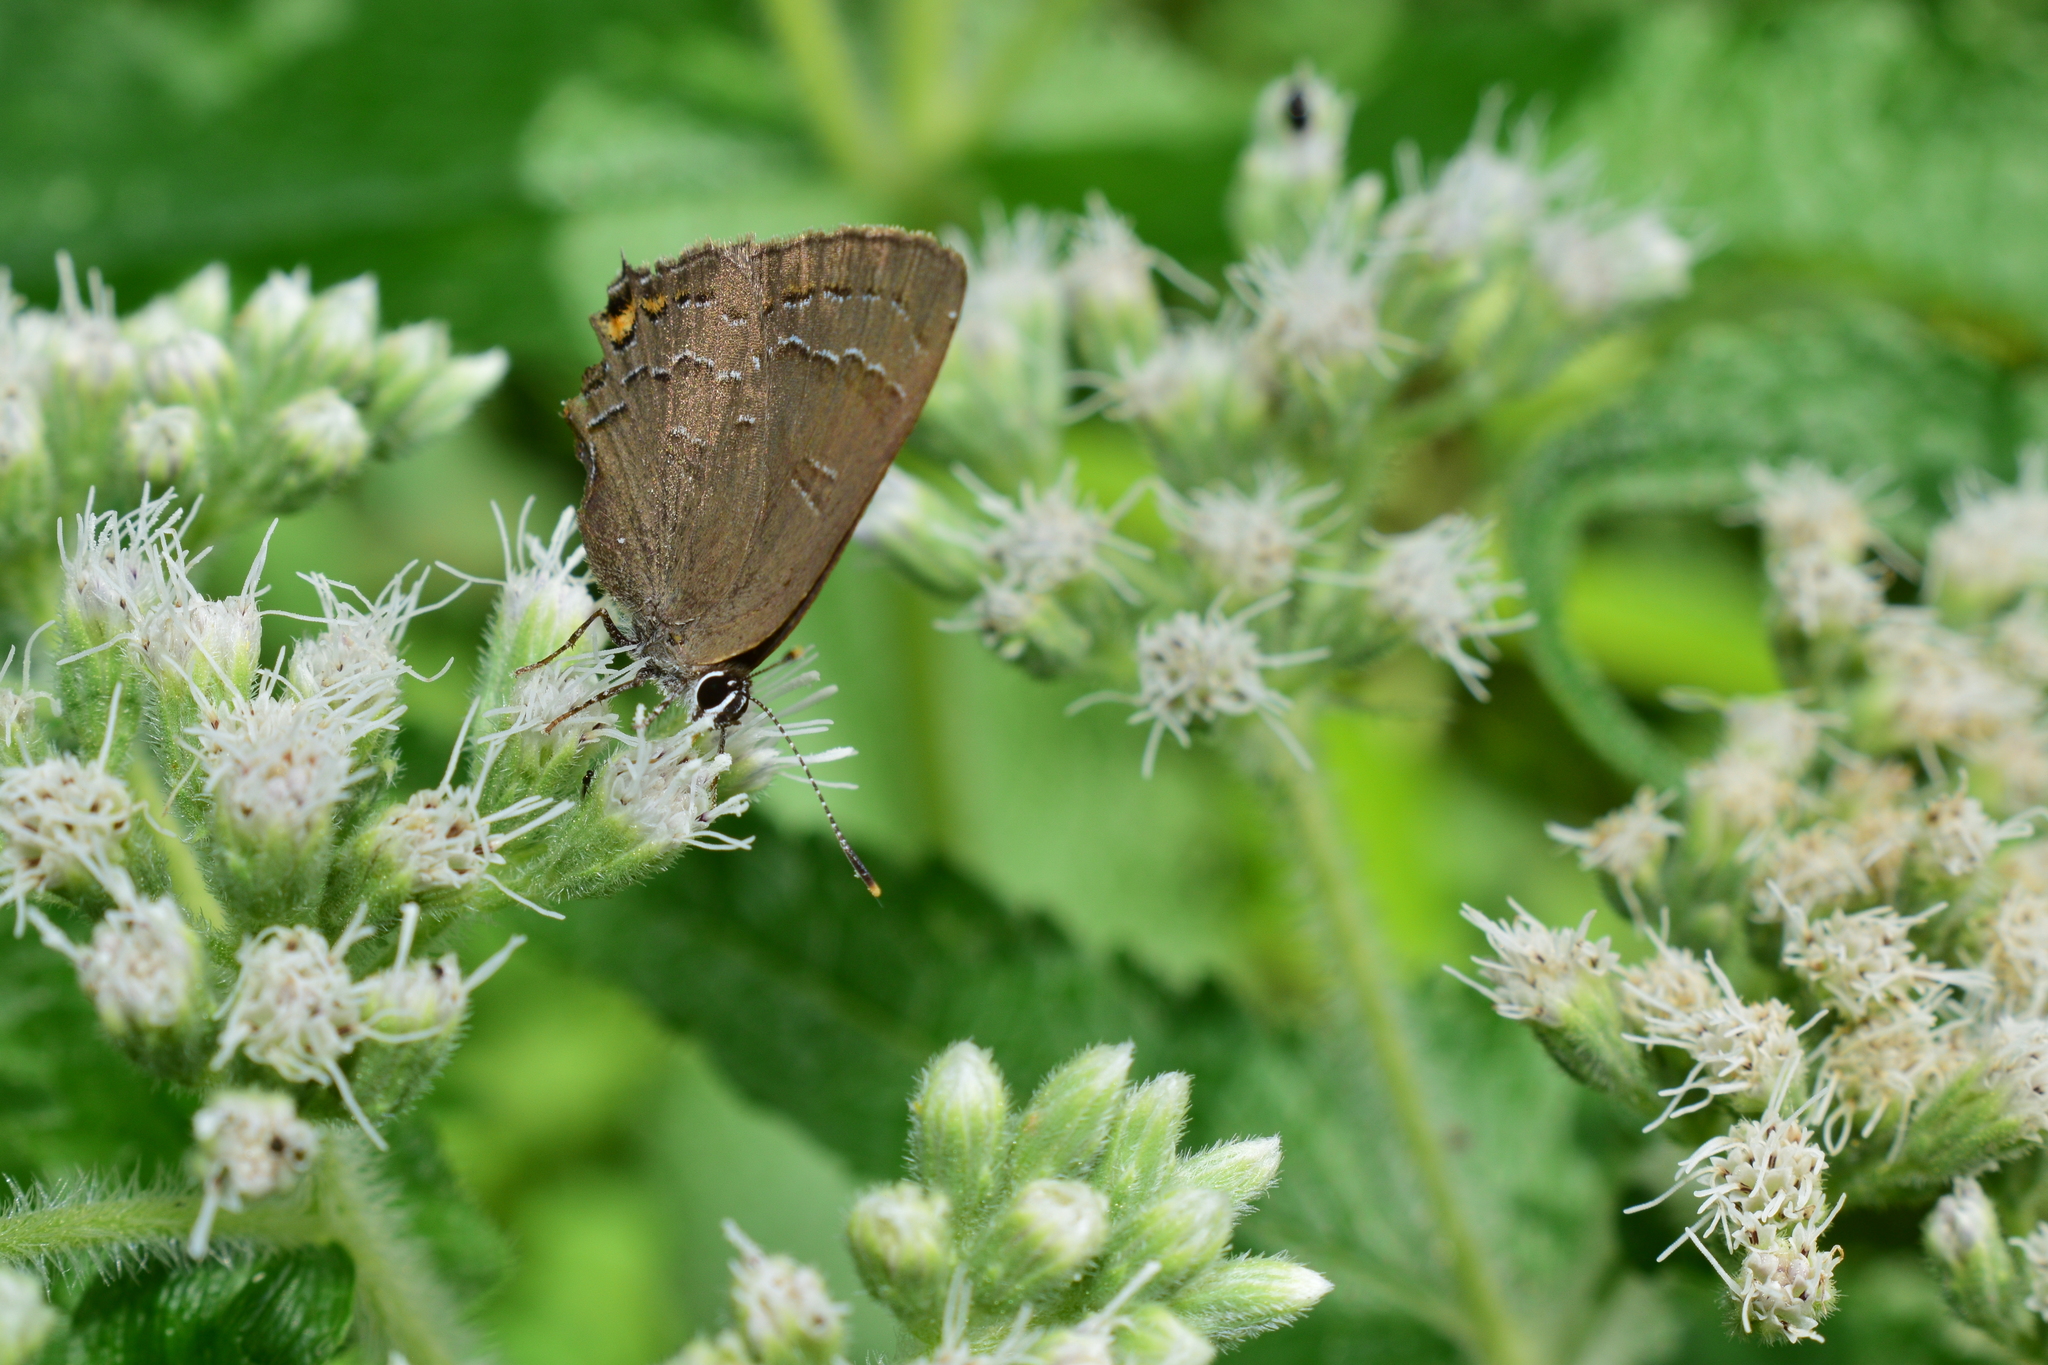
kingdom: Animalia
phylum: Arthropoda
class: Insecta
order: Lepidoptera
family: Lycaenidae
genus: Satyrium
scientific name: Satyrium calanus
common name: Banded hairstreak
